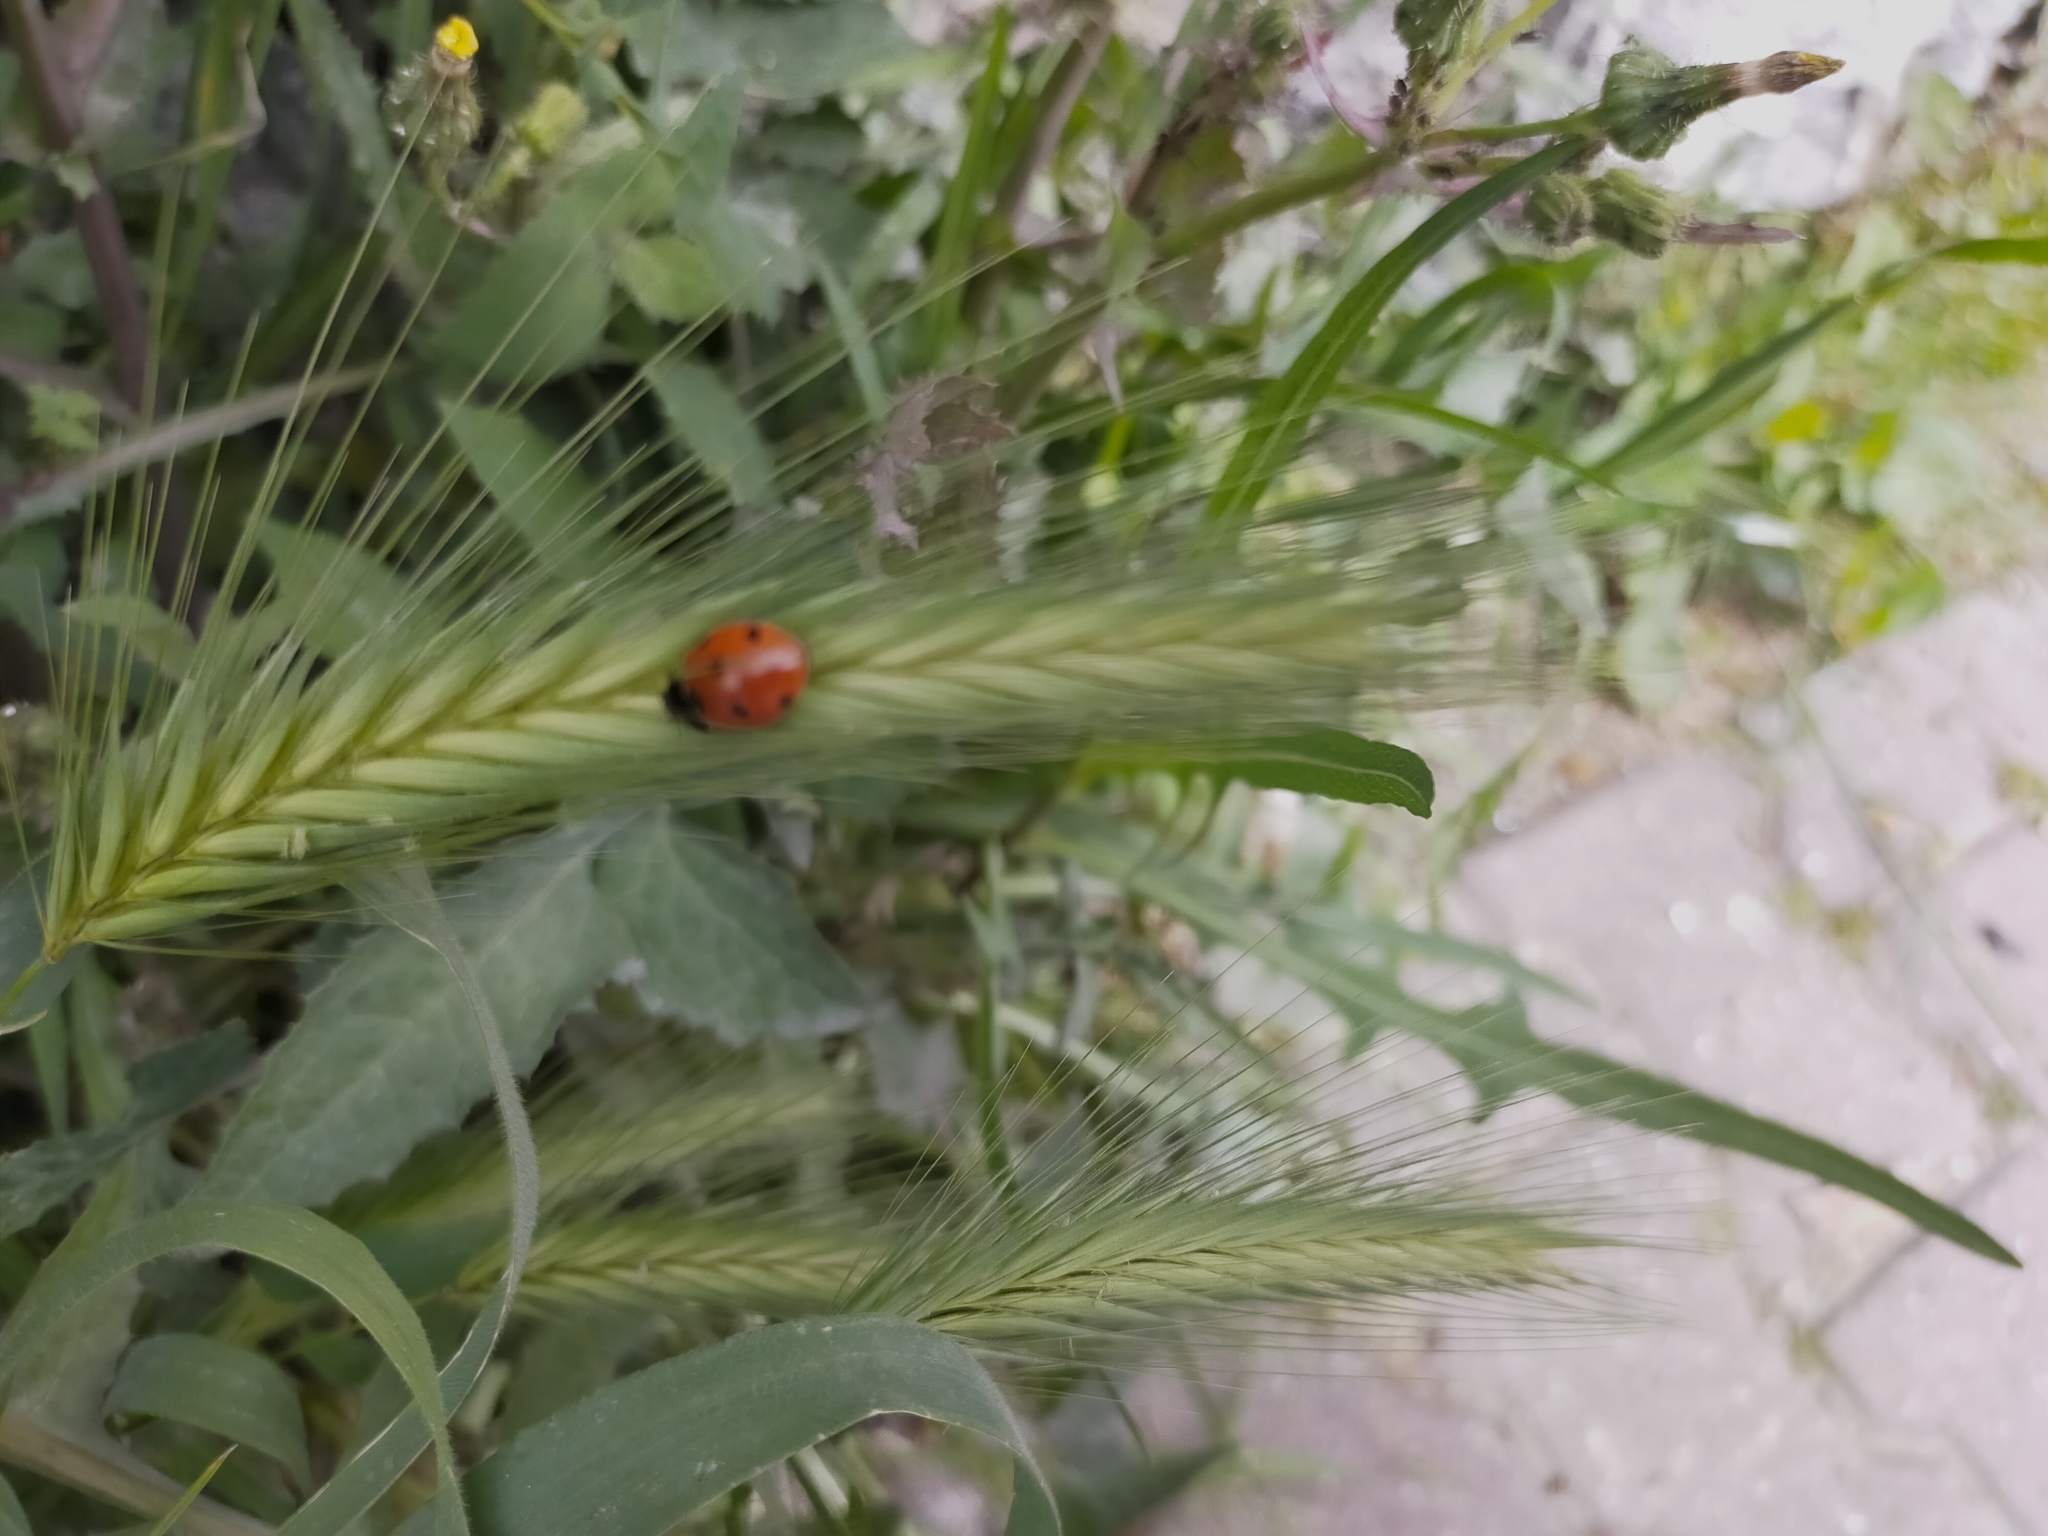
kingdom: Animalia
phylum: Arthropoda
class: Insecta
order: Coleoptera
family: Coccinellidae
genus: Coccinella
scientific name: Coccinella septempunctata
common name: Sevenspotted lady beetle
